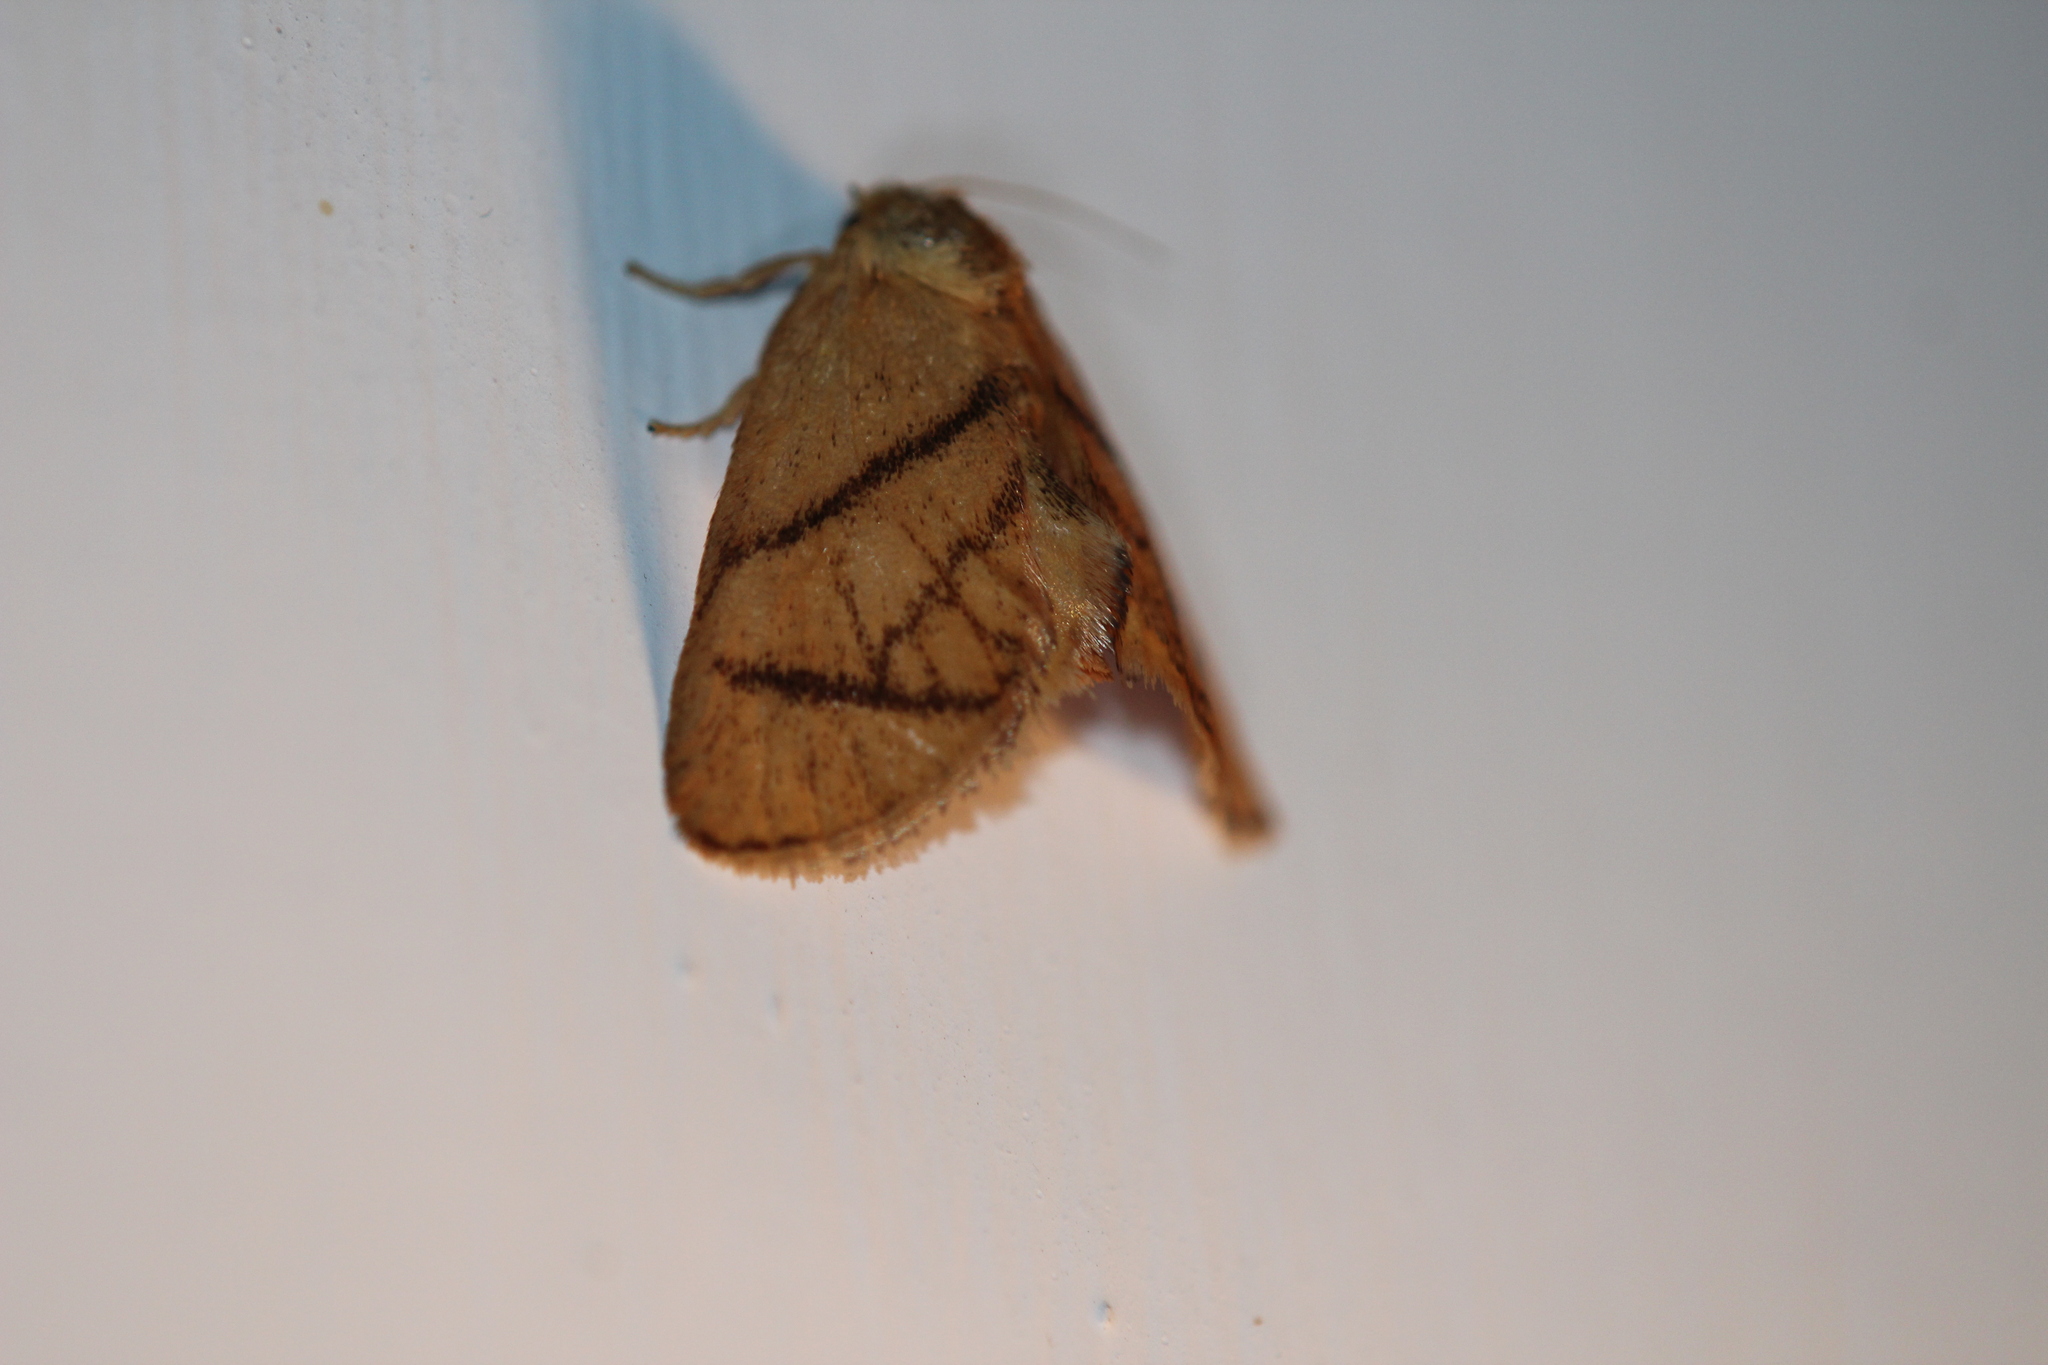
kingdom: Animalia
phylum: Arthropoda
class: Insecta
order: Lepidoptera
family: Limacodidae
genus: Apoda
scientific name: Apoda y-inversa
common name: Yellow-collared slug moth
